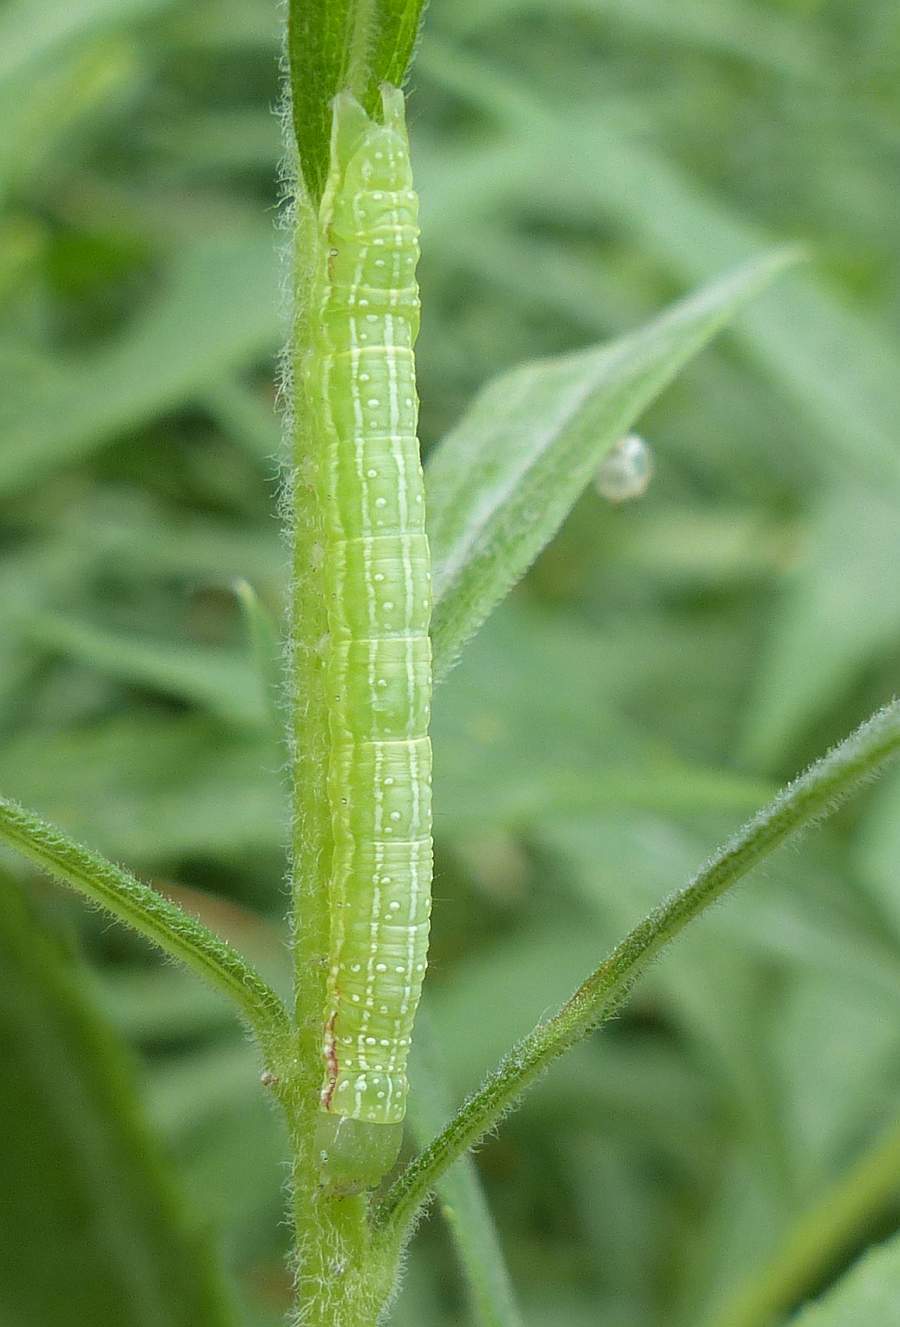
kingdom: Animalia
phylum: Arthropoda
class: Insecta
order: Lepidoptera
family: Noctuidae
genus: Leuconycta
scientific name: Leuconycta diphteroides
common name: Green leuconycta moth
